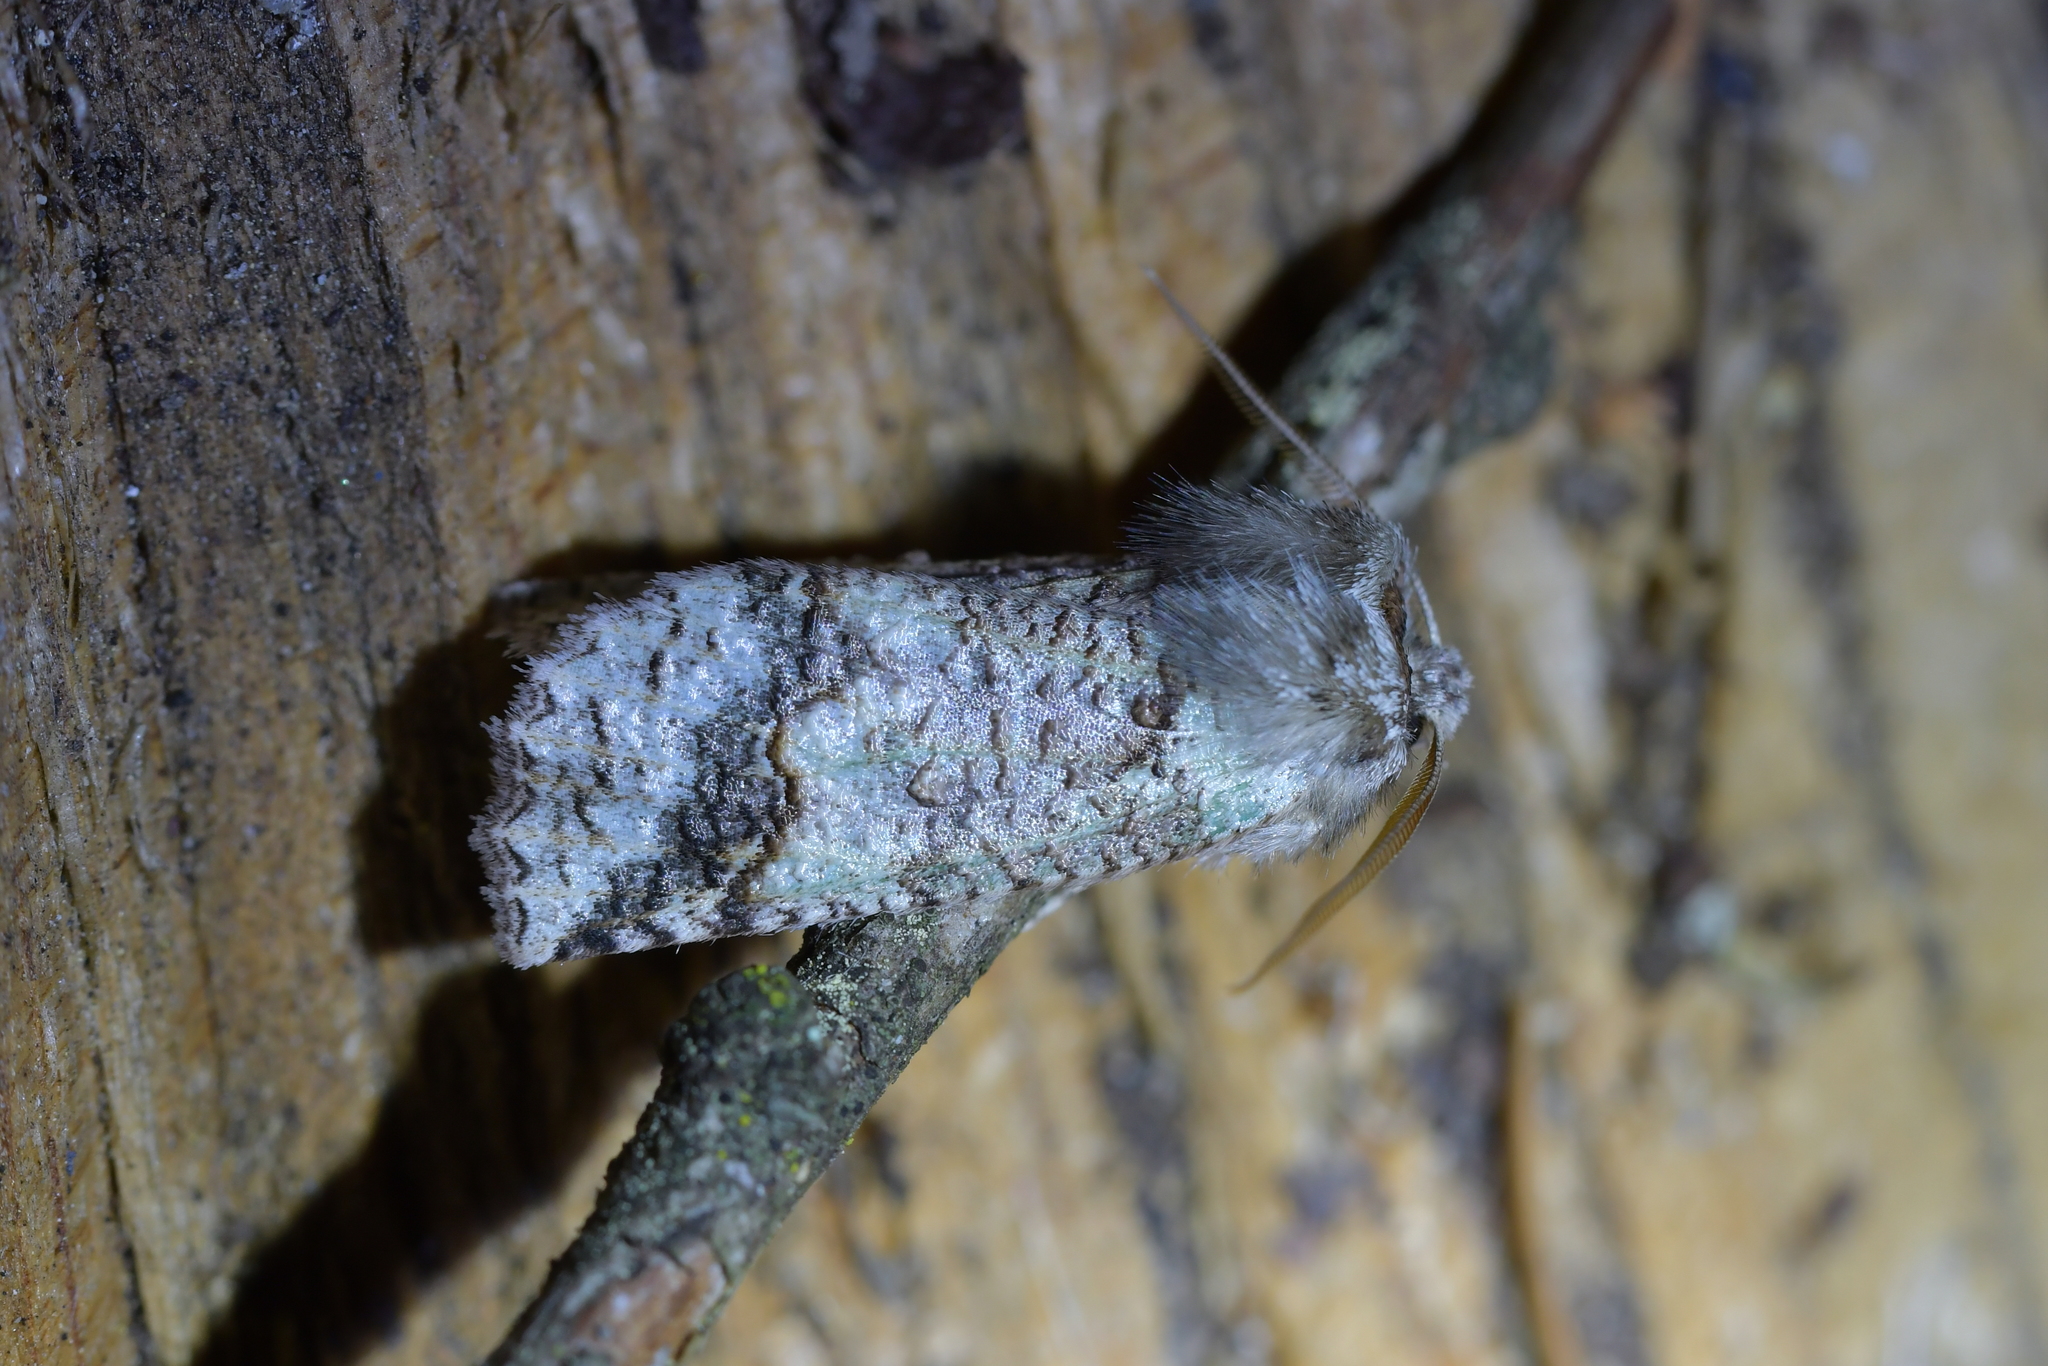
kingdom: Animalia
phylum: Arthropoda
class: Insecta
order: Lepidoptera
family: Geometridae
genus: Declana
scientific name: Declana floccosa
